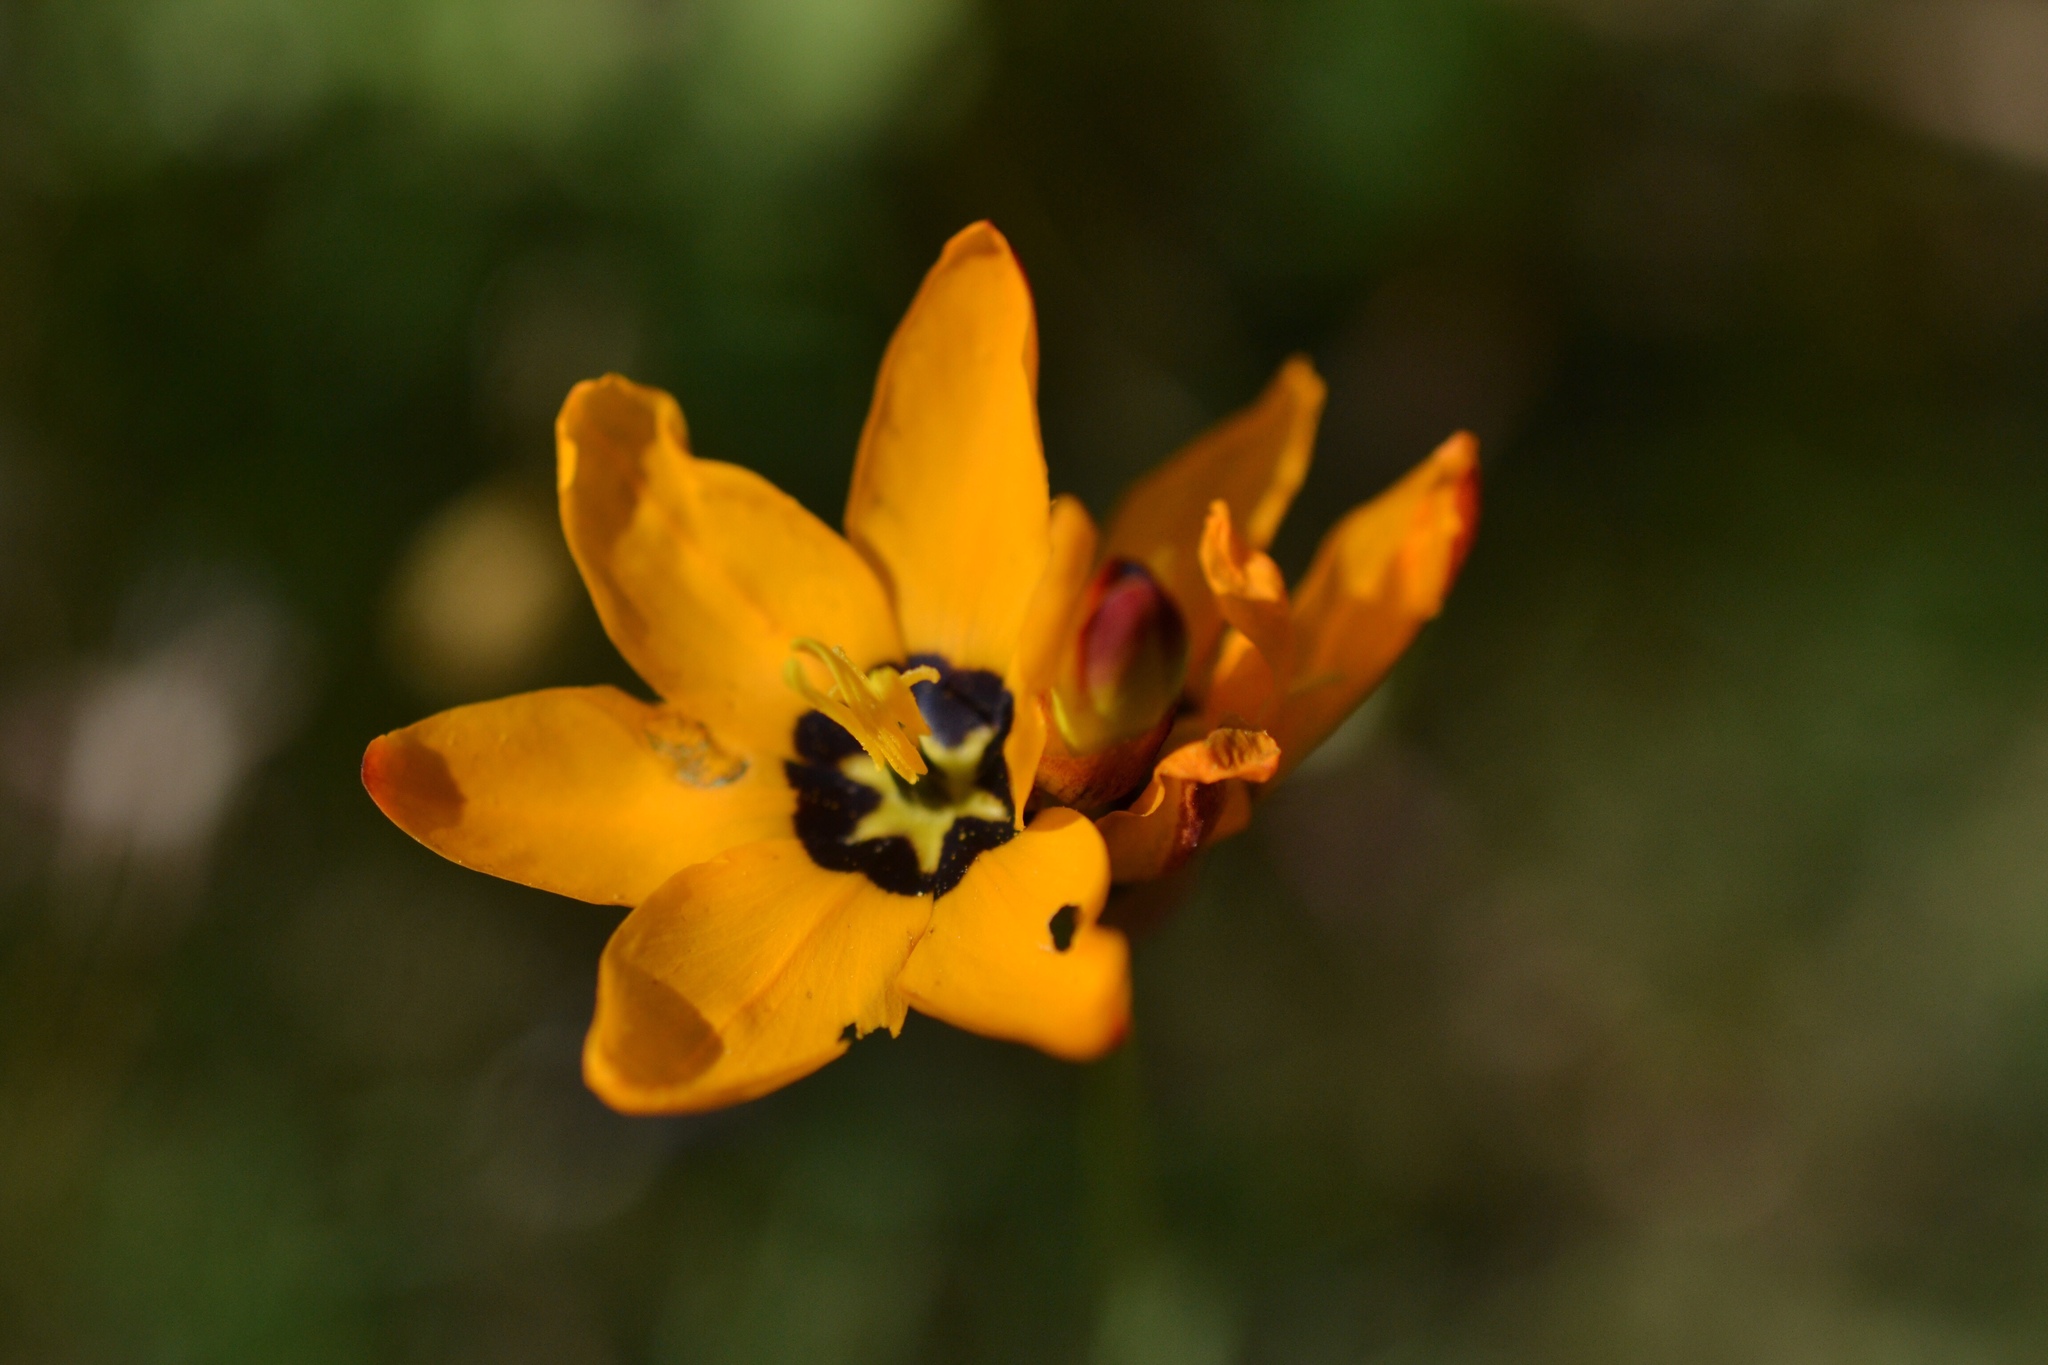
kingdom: Plantae
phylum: Tracheophyta
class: Liliopsida
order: Asparagales
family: Iridaceae
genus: Ixia
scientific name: Ixia maculata
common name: Spotted african cornlily
